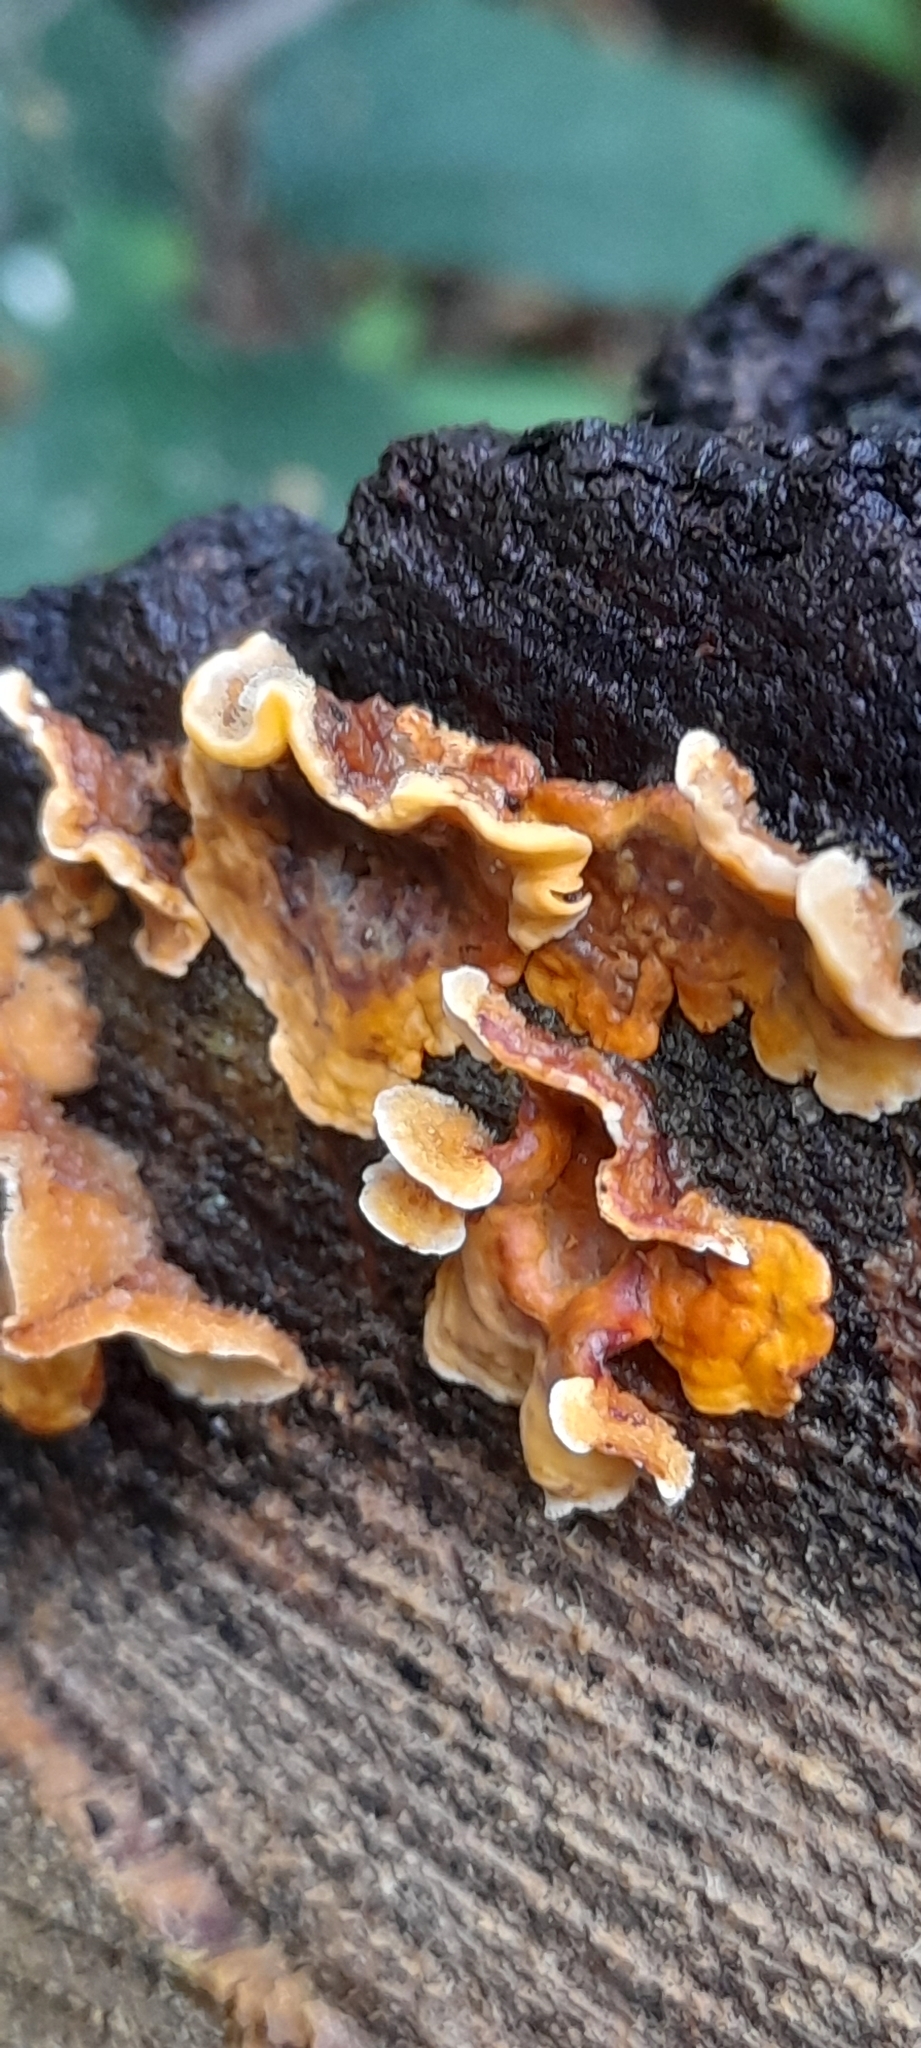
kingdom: Fungi
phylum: Basidiomycota
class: Agaricomycetes
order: Russulales
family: Stereaceae
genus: Stereum
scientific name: Stereum hirsutum
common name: Hairy curtain crust
